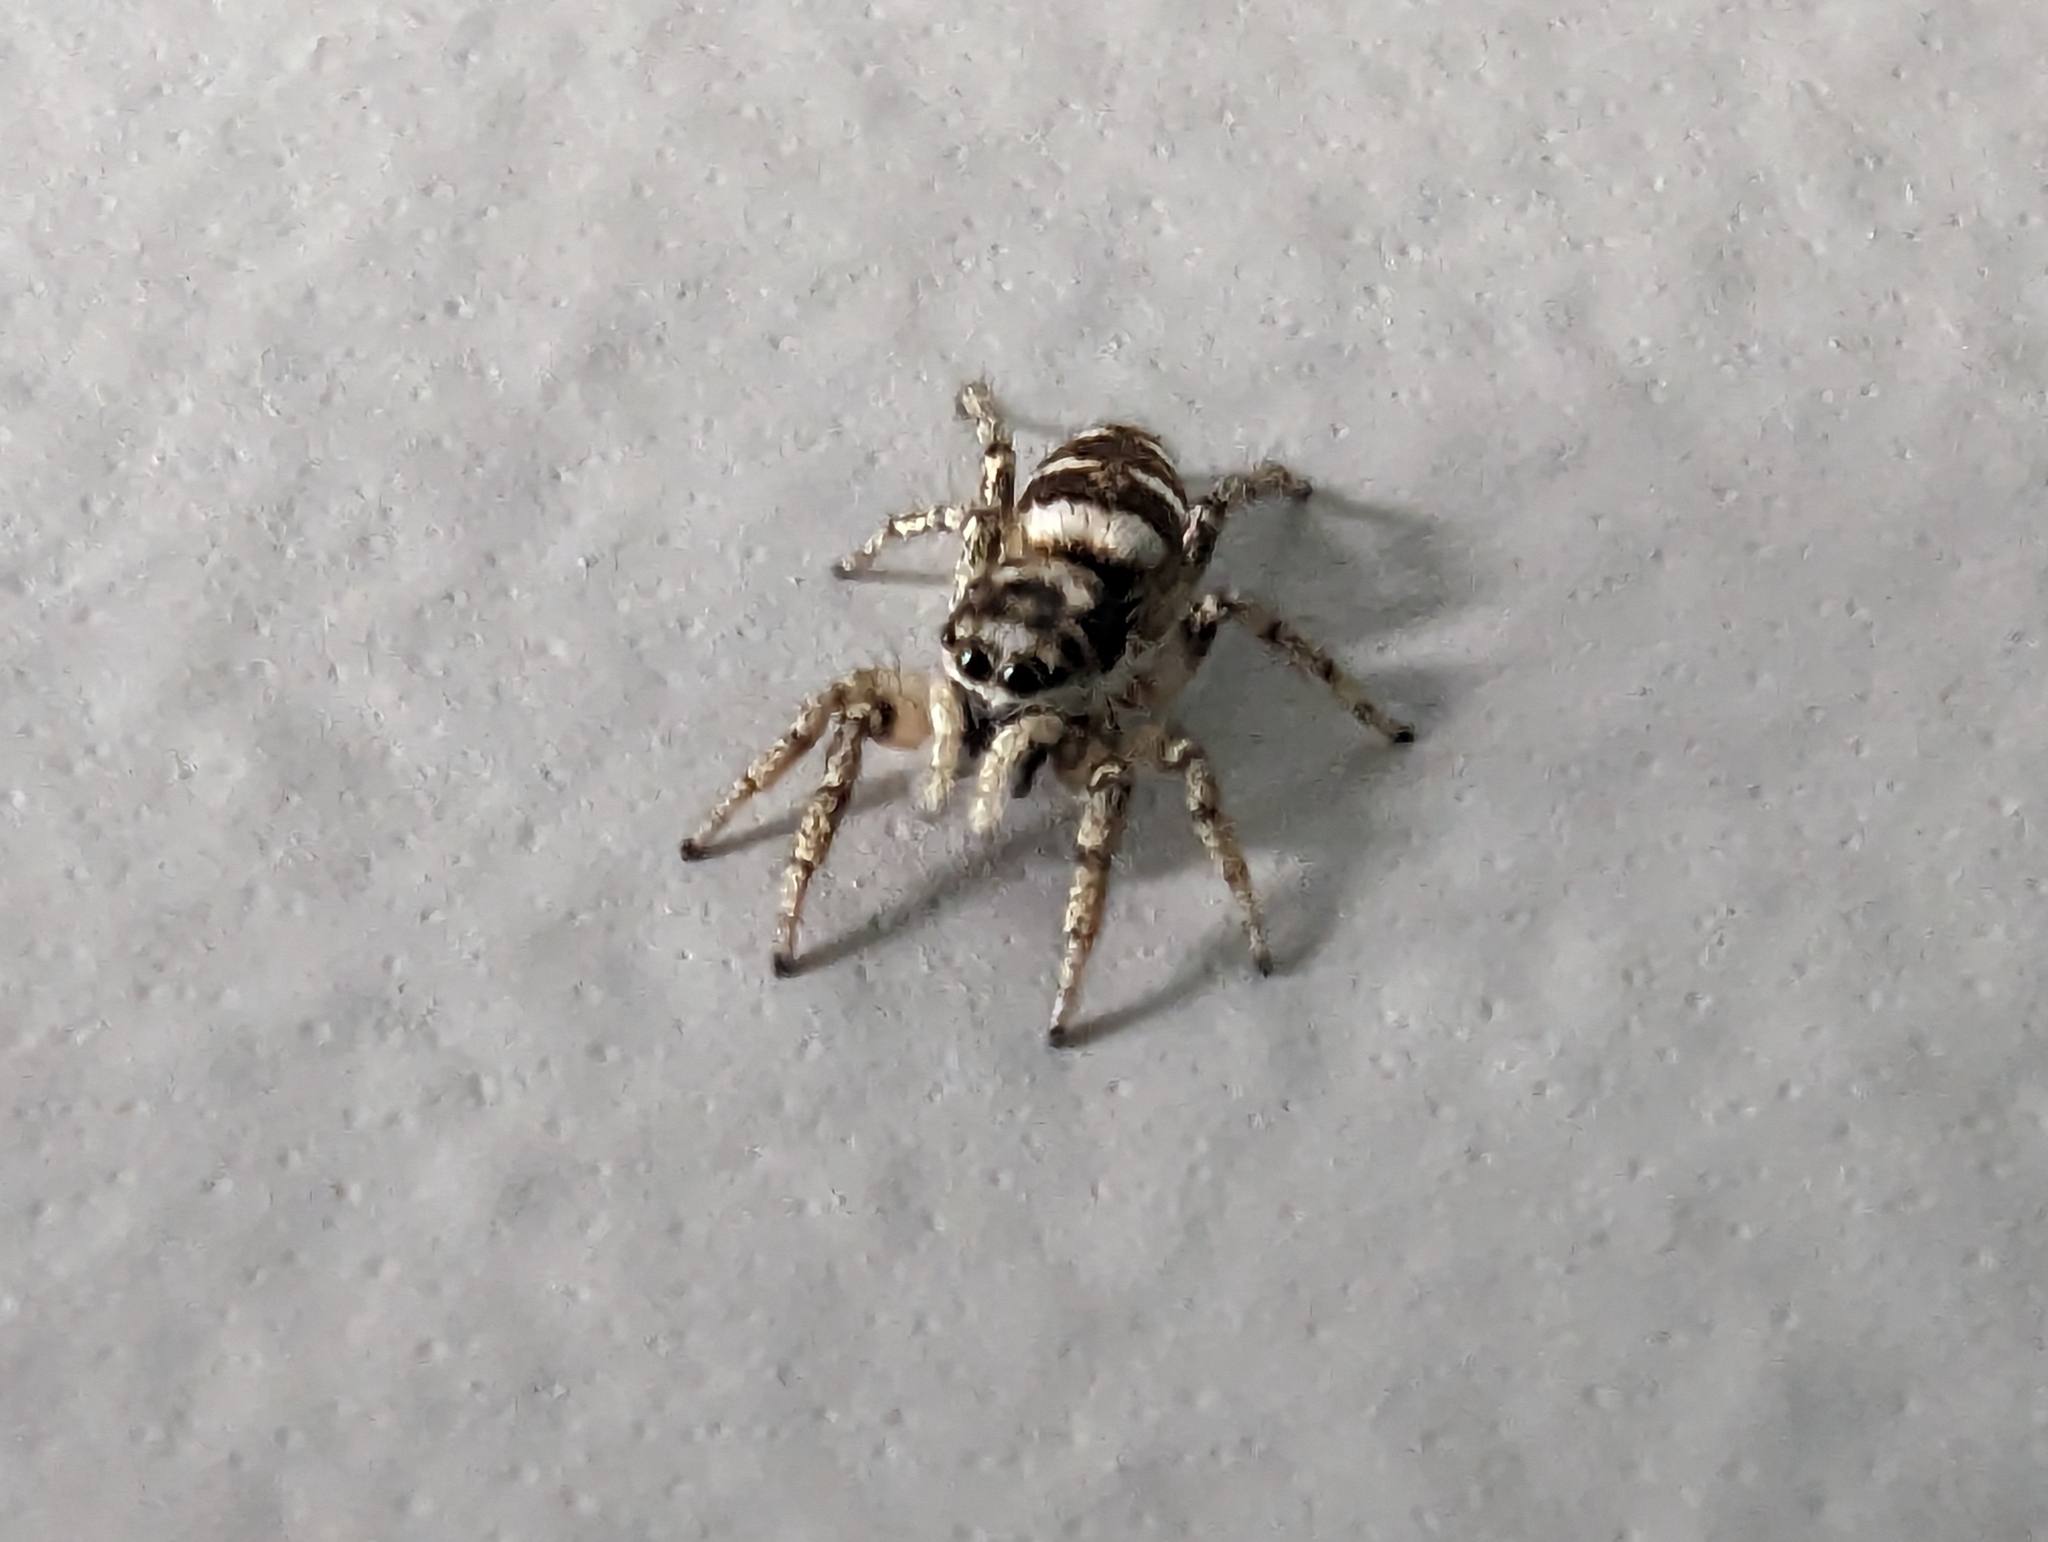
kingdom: Animalia
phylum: Arthropoda
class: Arachnida
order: Araneae
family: Salticidae
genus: Salticus
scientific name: Salticus scenicus
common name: Zebra jumper
